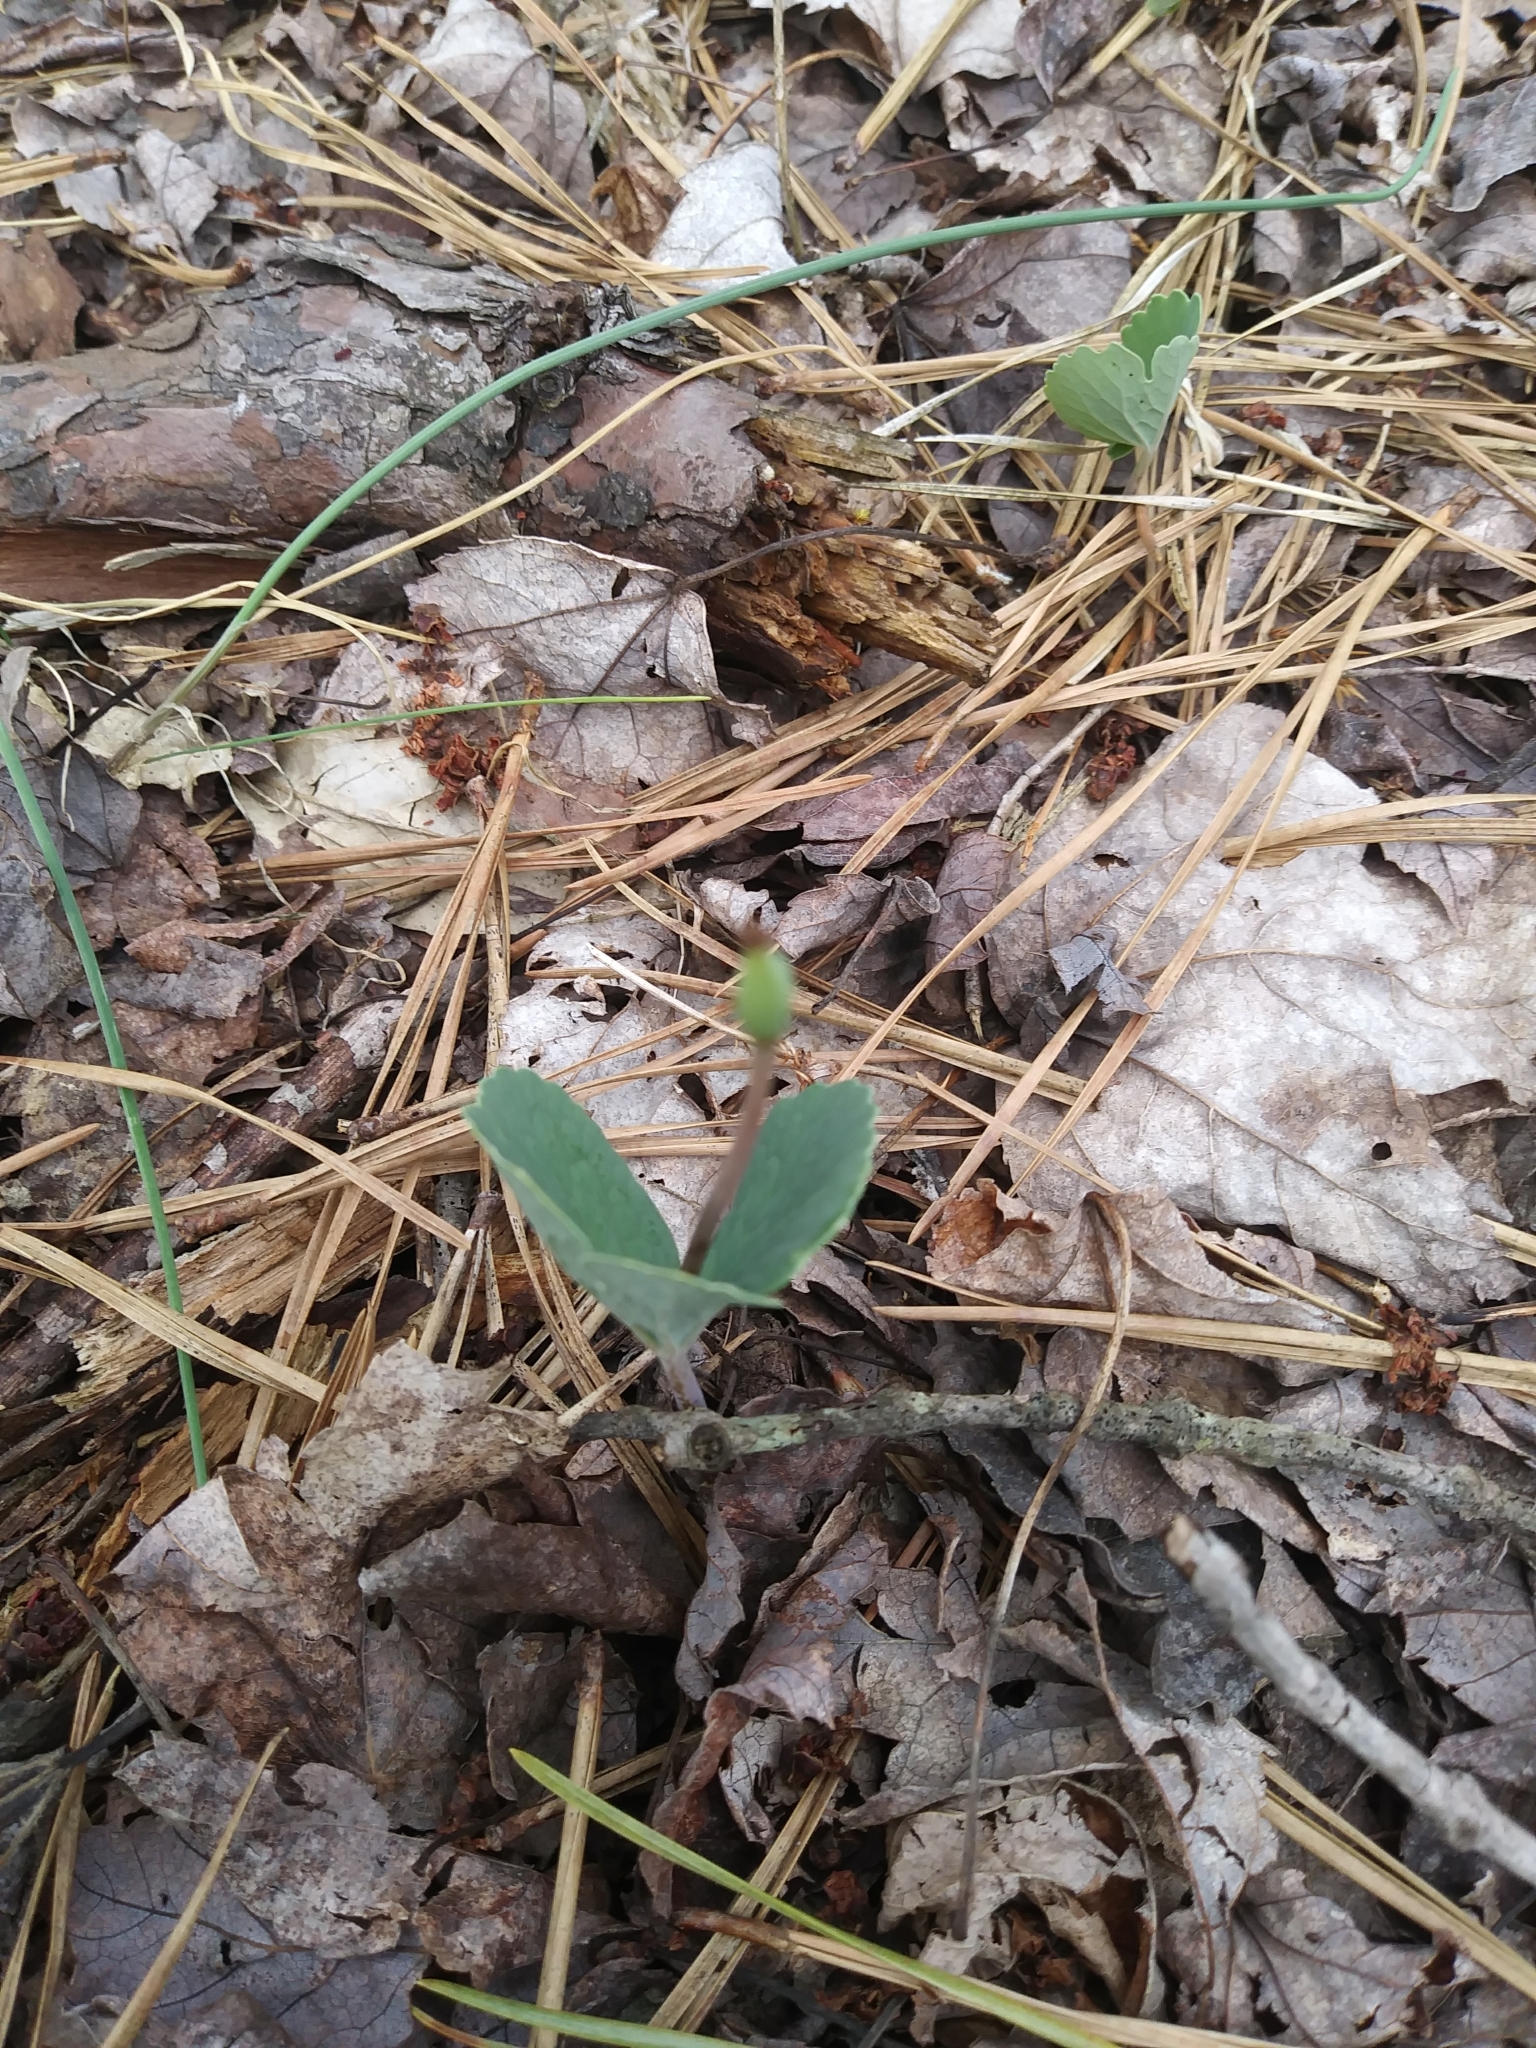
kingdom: Plantae
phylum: Tracheophyta
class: Magnoliopsida
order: Ranunculales
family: Papaveraceae
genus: Sanguinaria
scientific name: Sanguinaria canadensis
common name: Bloodroot
